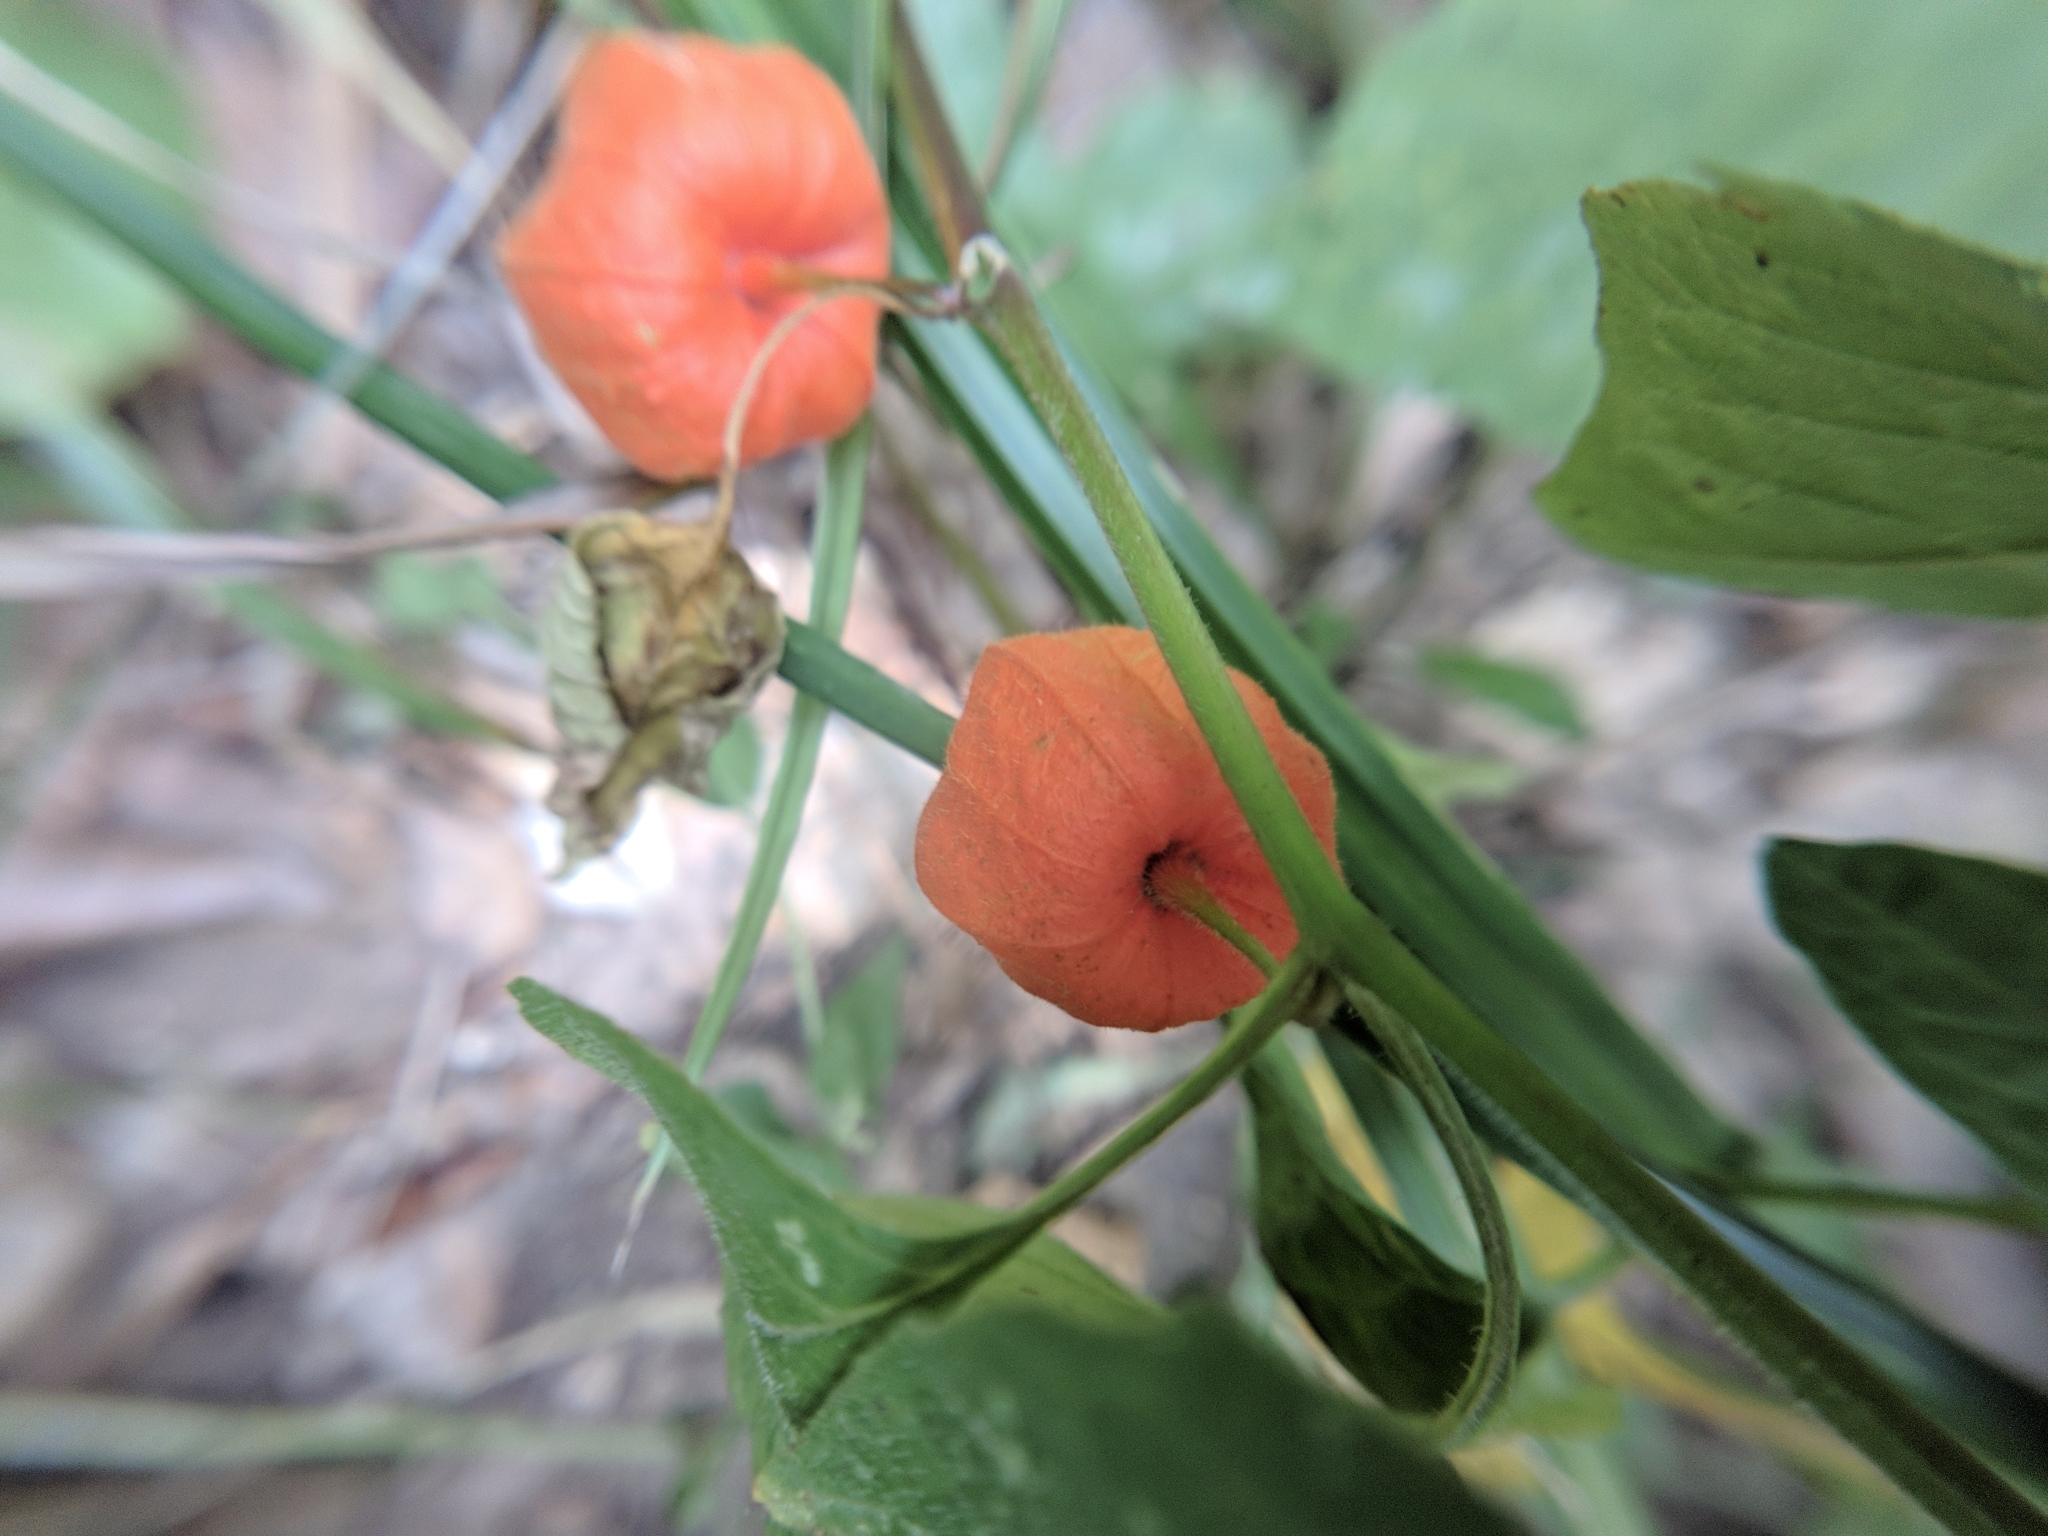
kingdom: Plantae
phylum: Tracheophyta
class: Magnoliopsida
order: Solanales
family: Solanaceae
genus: Alkekengi
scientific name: Alkekengi officinarum
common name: Japanese-lantern
